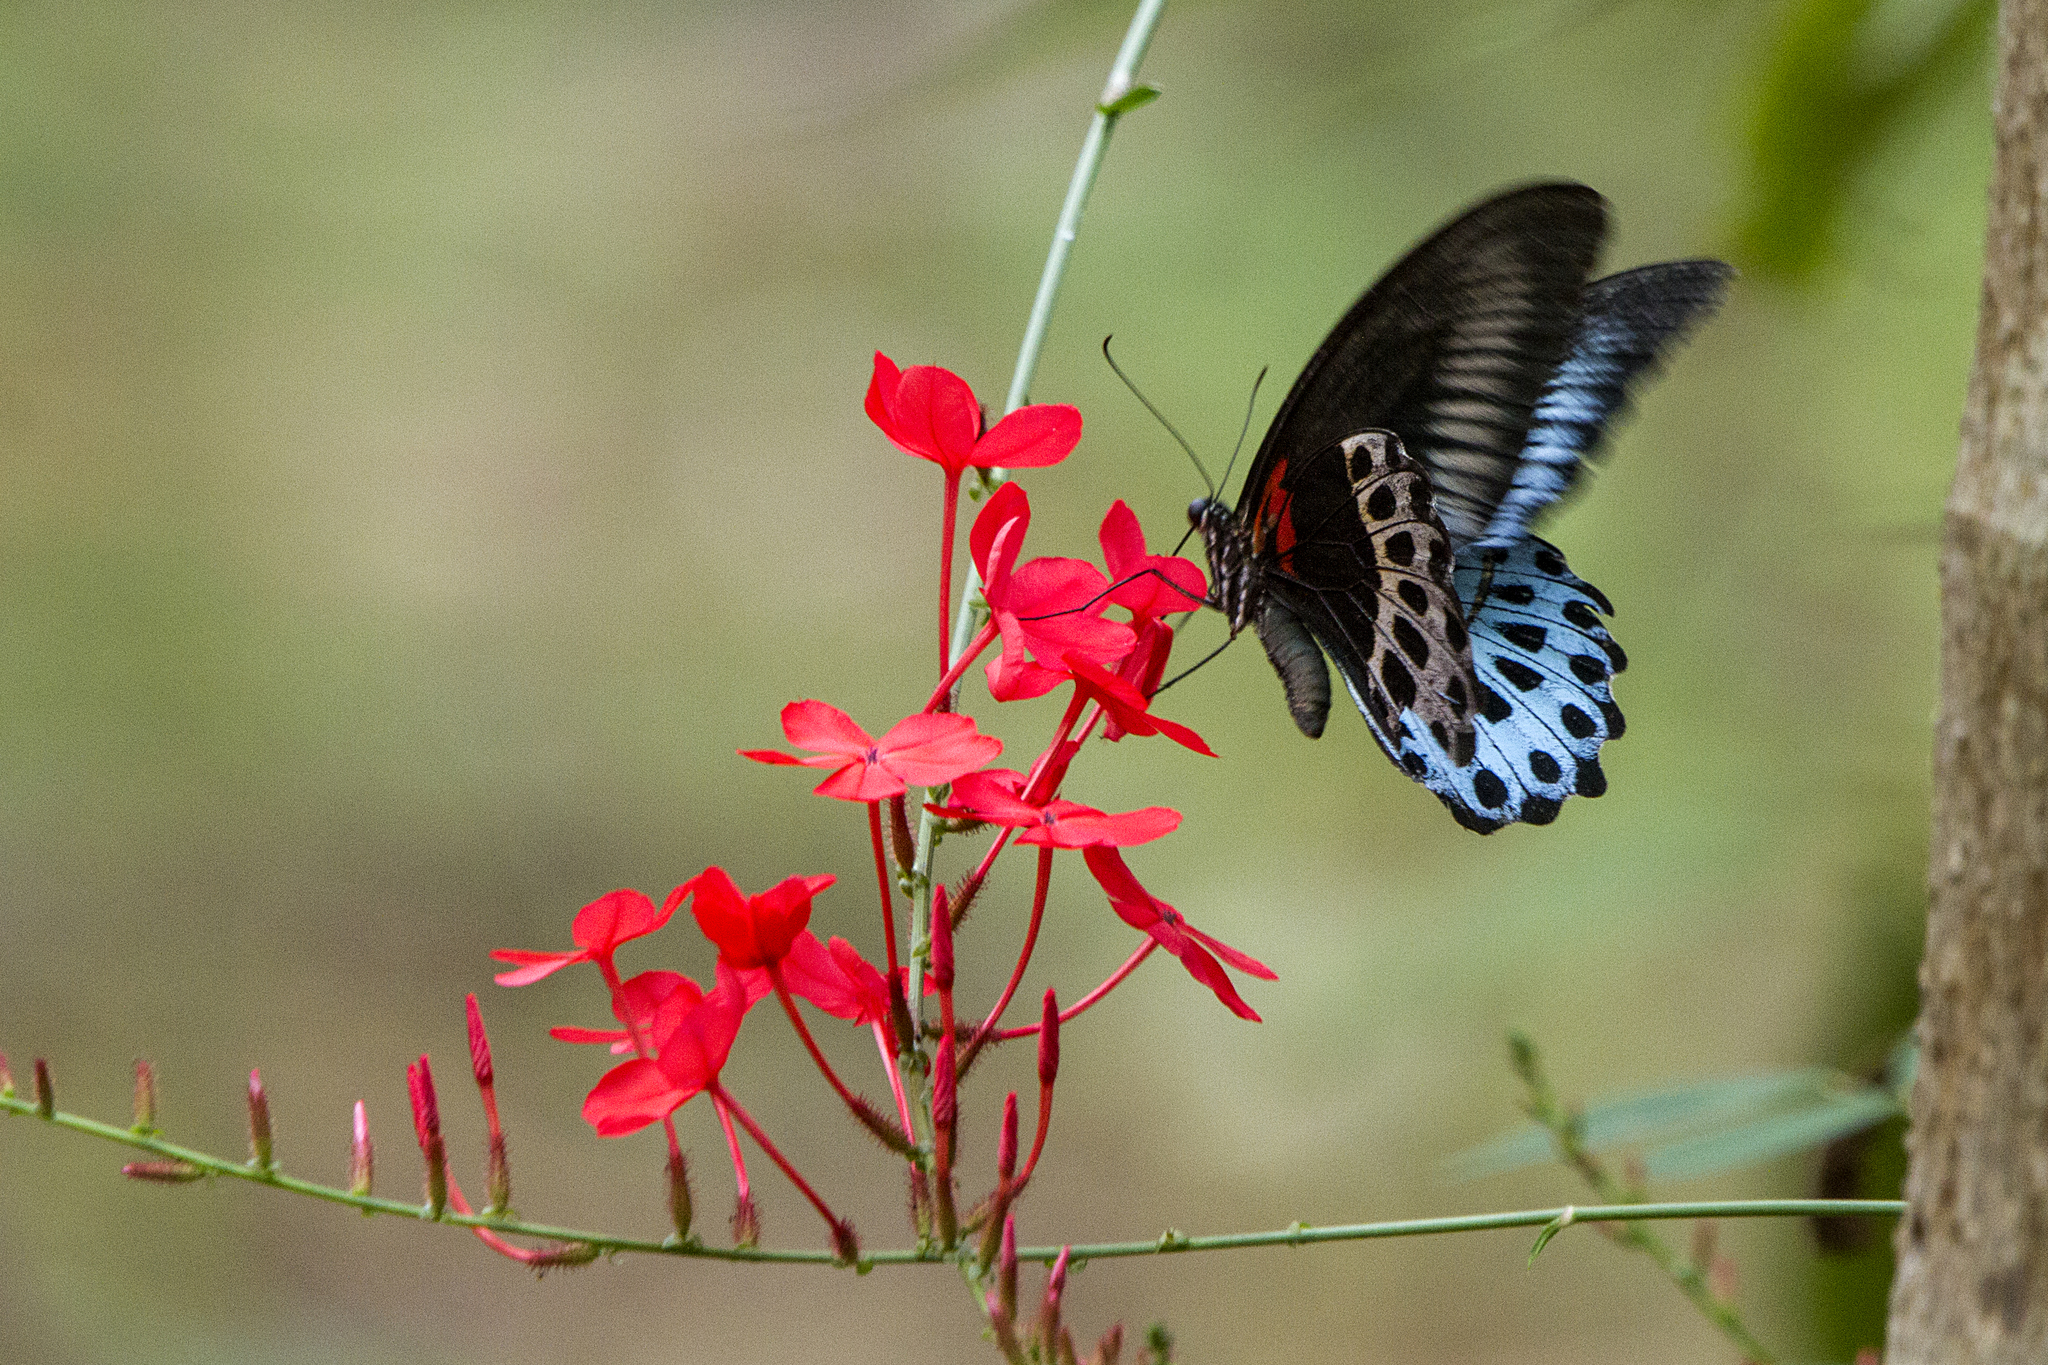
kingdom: Animalia
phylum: Arthropoda
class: Insecta
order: Lepidoptera
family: Papilionidae
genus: Papilio
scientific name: Papilio memnon
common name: Great mormon
